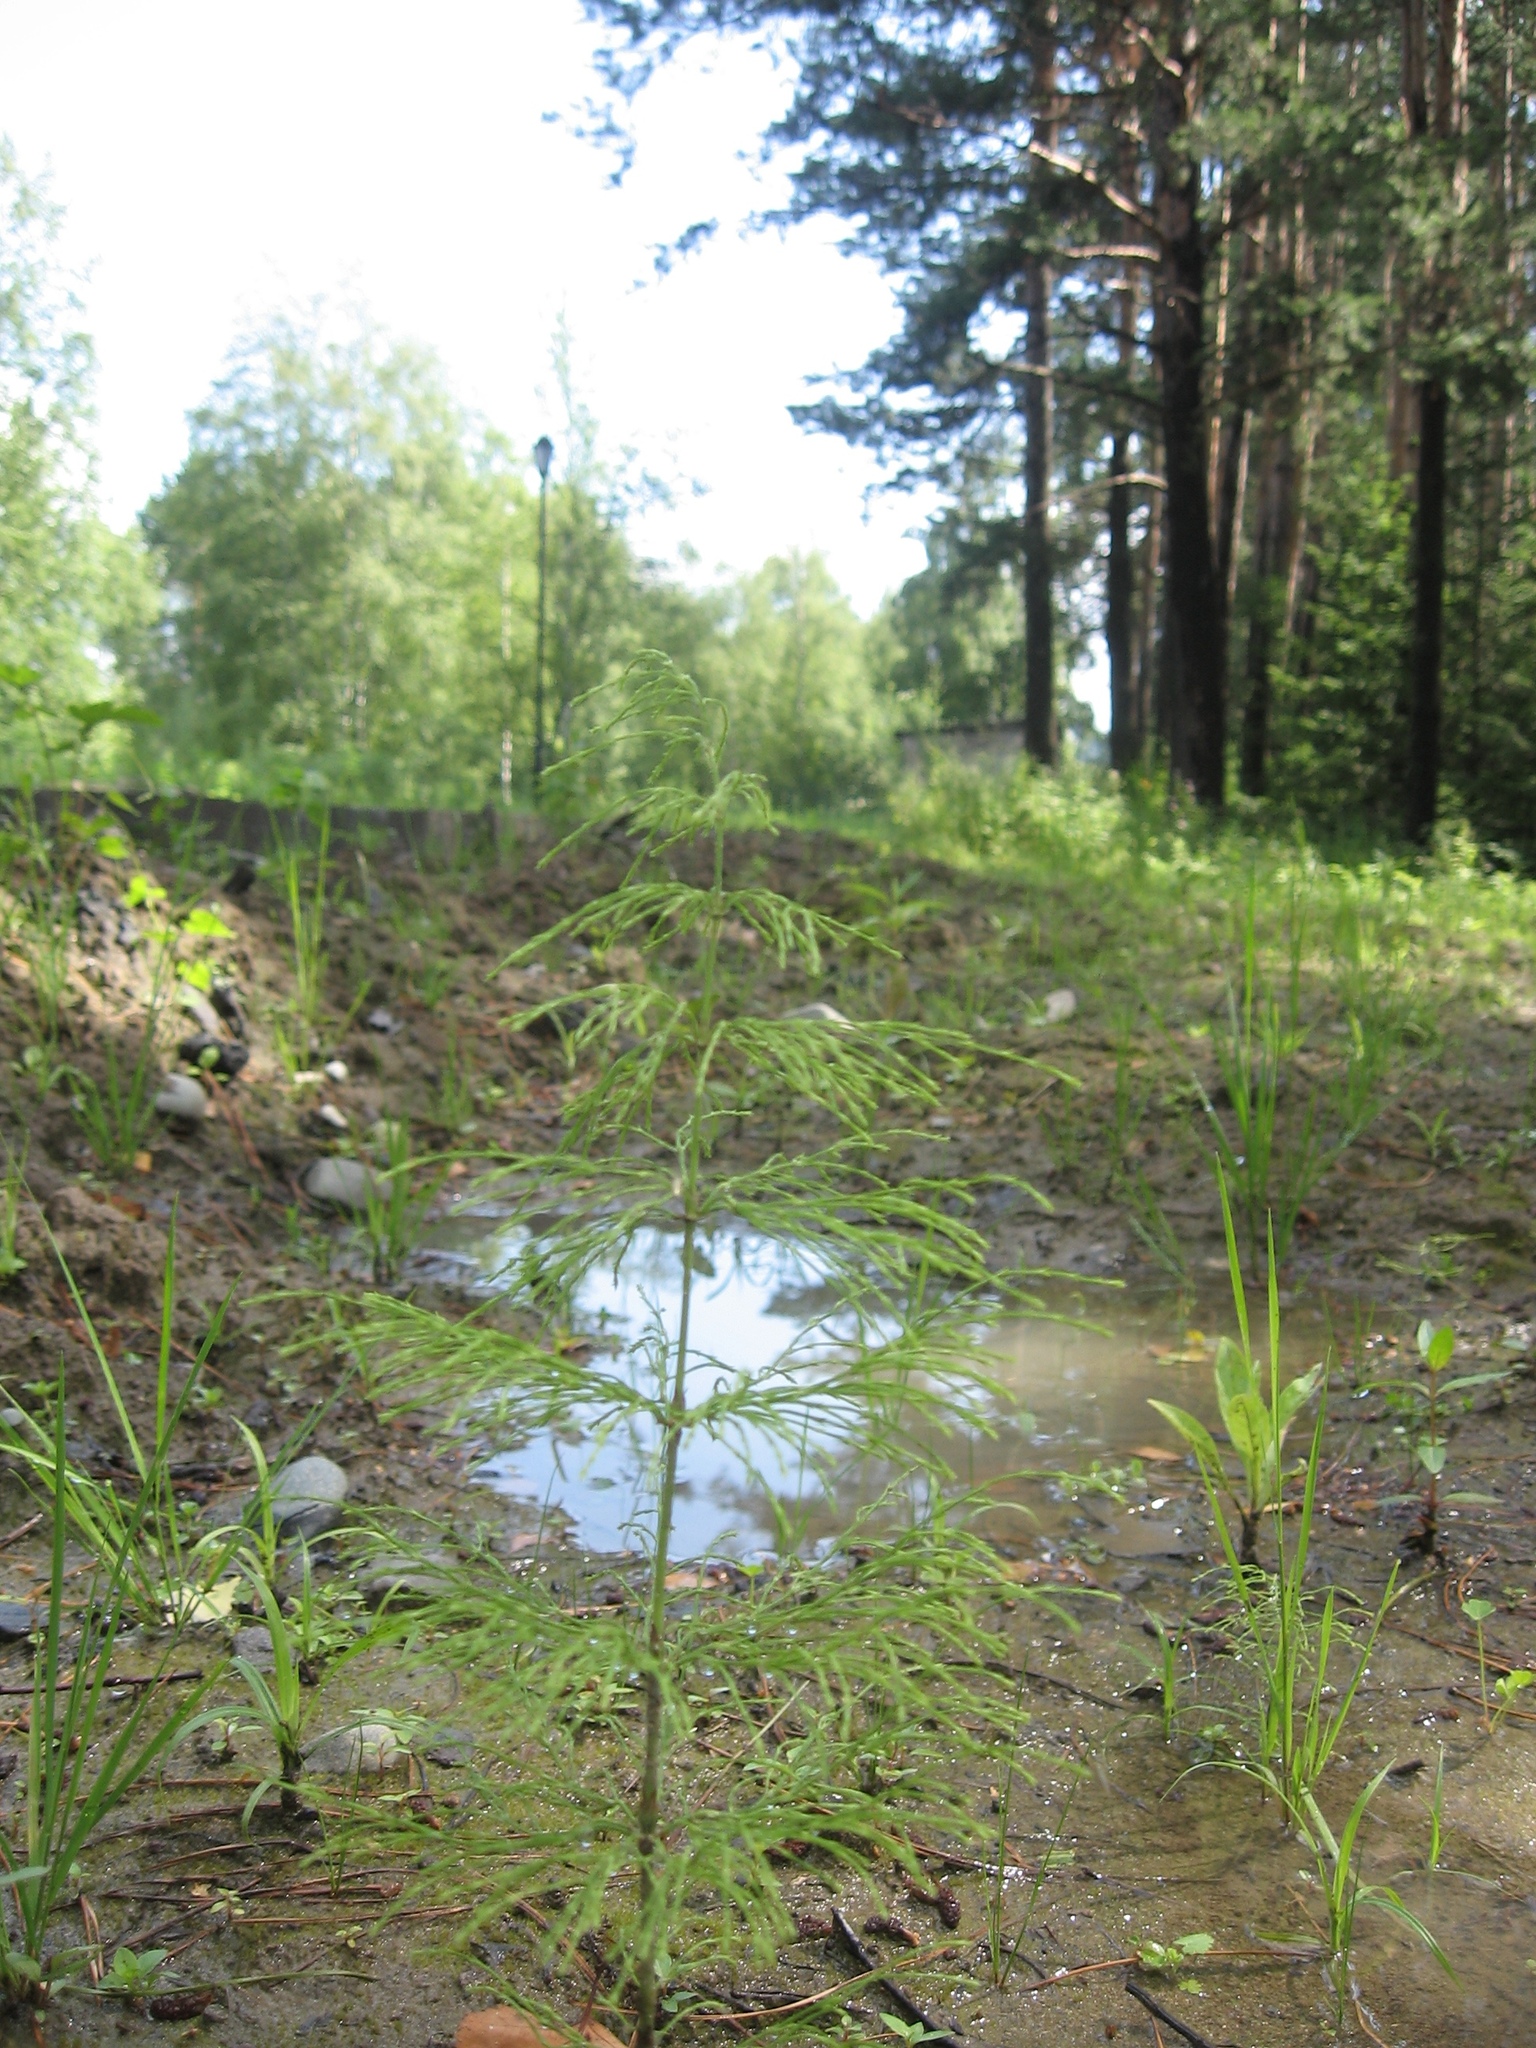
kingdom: Plantae
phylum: Tracheophyta
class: Polypodiopsida
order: Equisetales
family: Equisetaceae
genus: Equisetum
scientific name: Equisetum sylvaticum
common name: Wood horsetail
